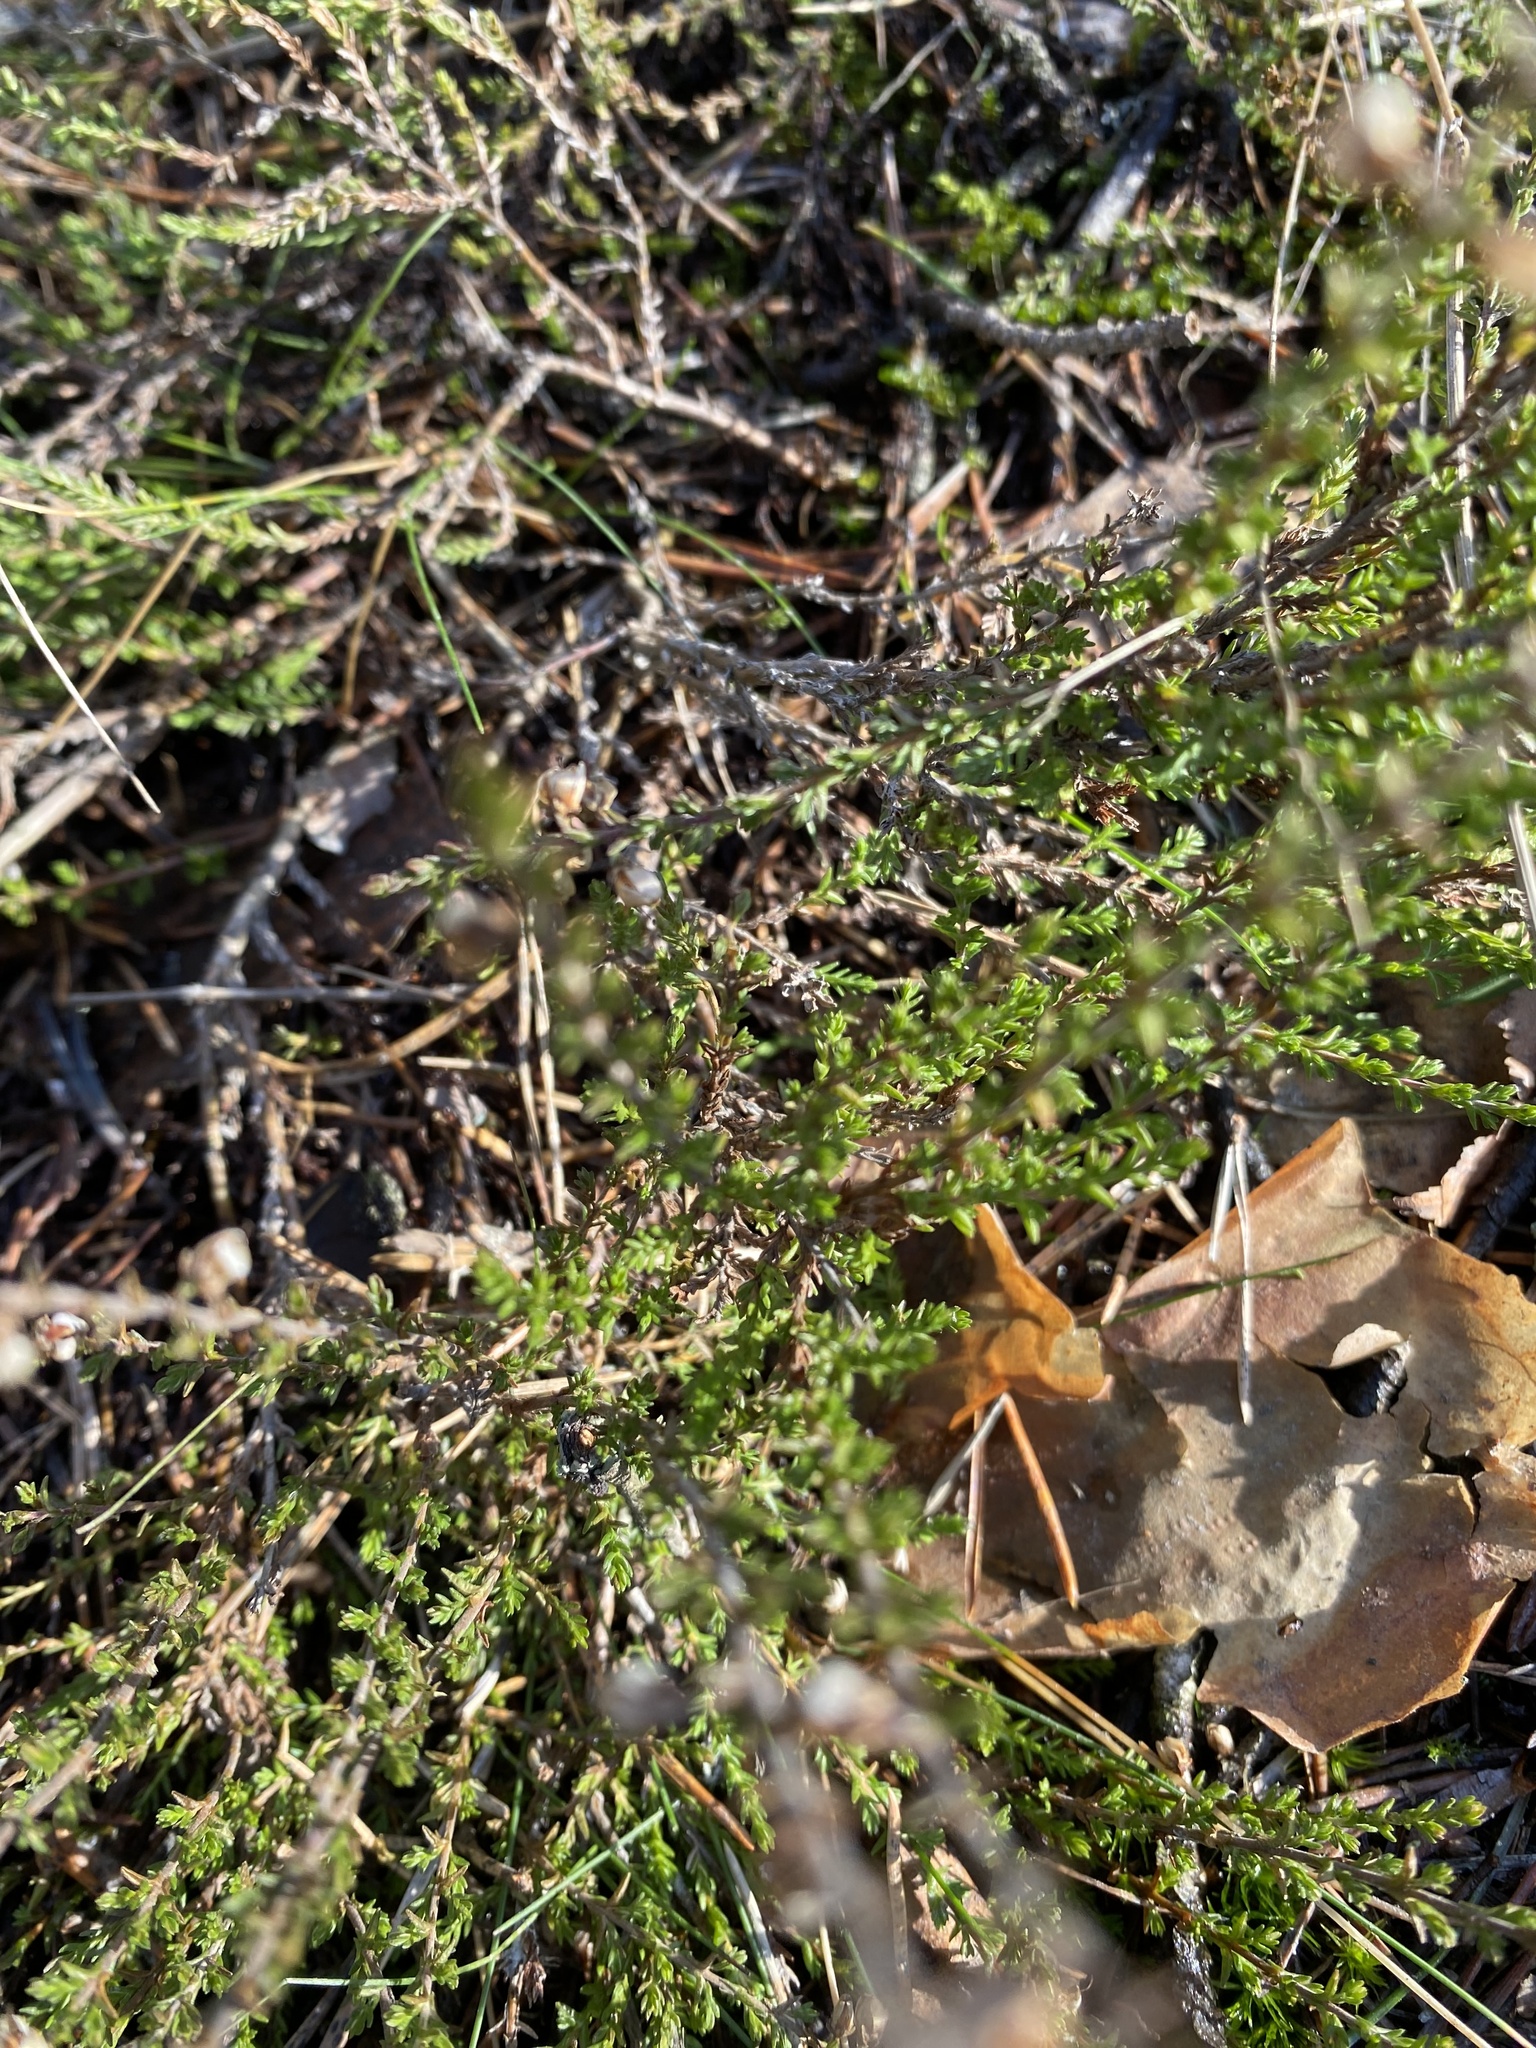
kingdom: Plantae
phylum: Tracheophyta
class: Magnoliopsida
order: Ericales
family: Ericaceae
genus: Calluna
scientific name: Calluna vulgaris
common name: Heather
